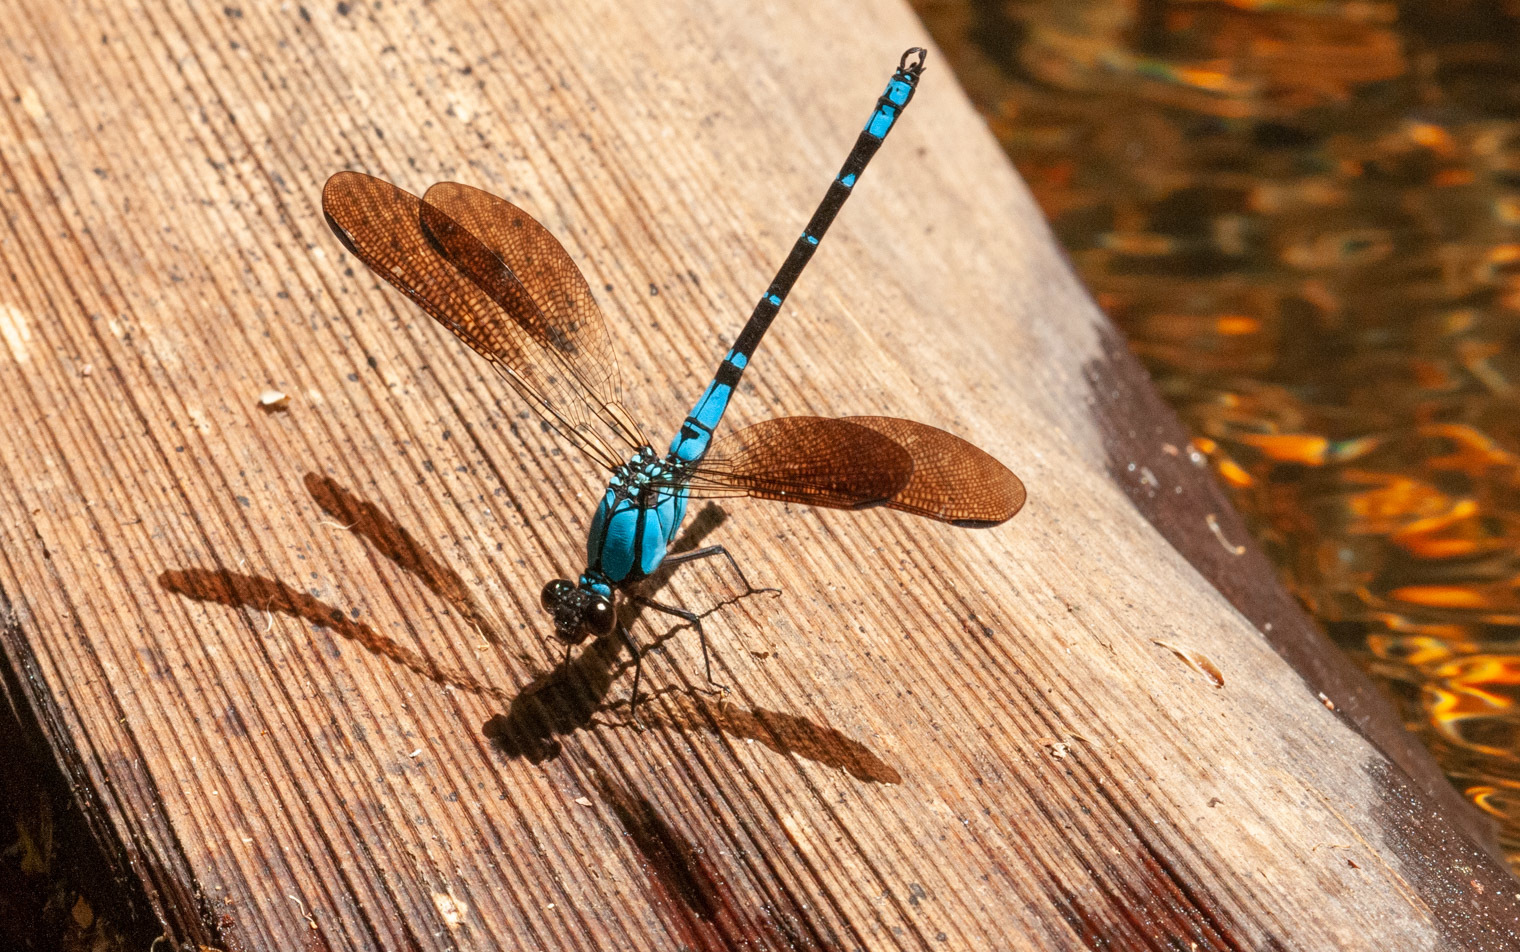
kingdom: Animalia
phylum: Arthropoda
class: Insecta
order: Odonata
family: Lestoideidae
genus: Diphlebia
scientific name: Diphlebia coerulescens
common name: Sapphire rockmaster
